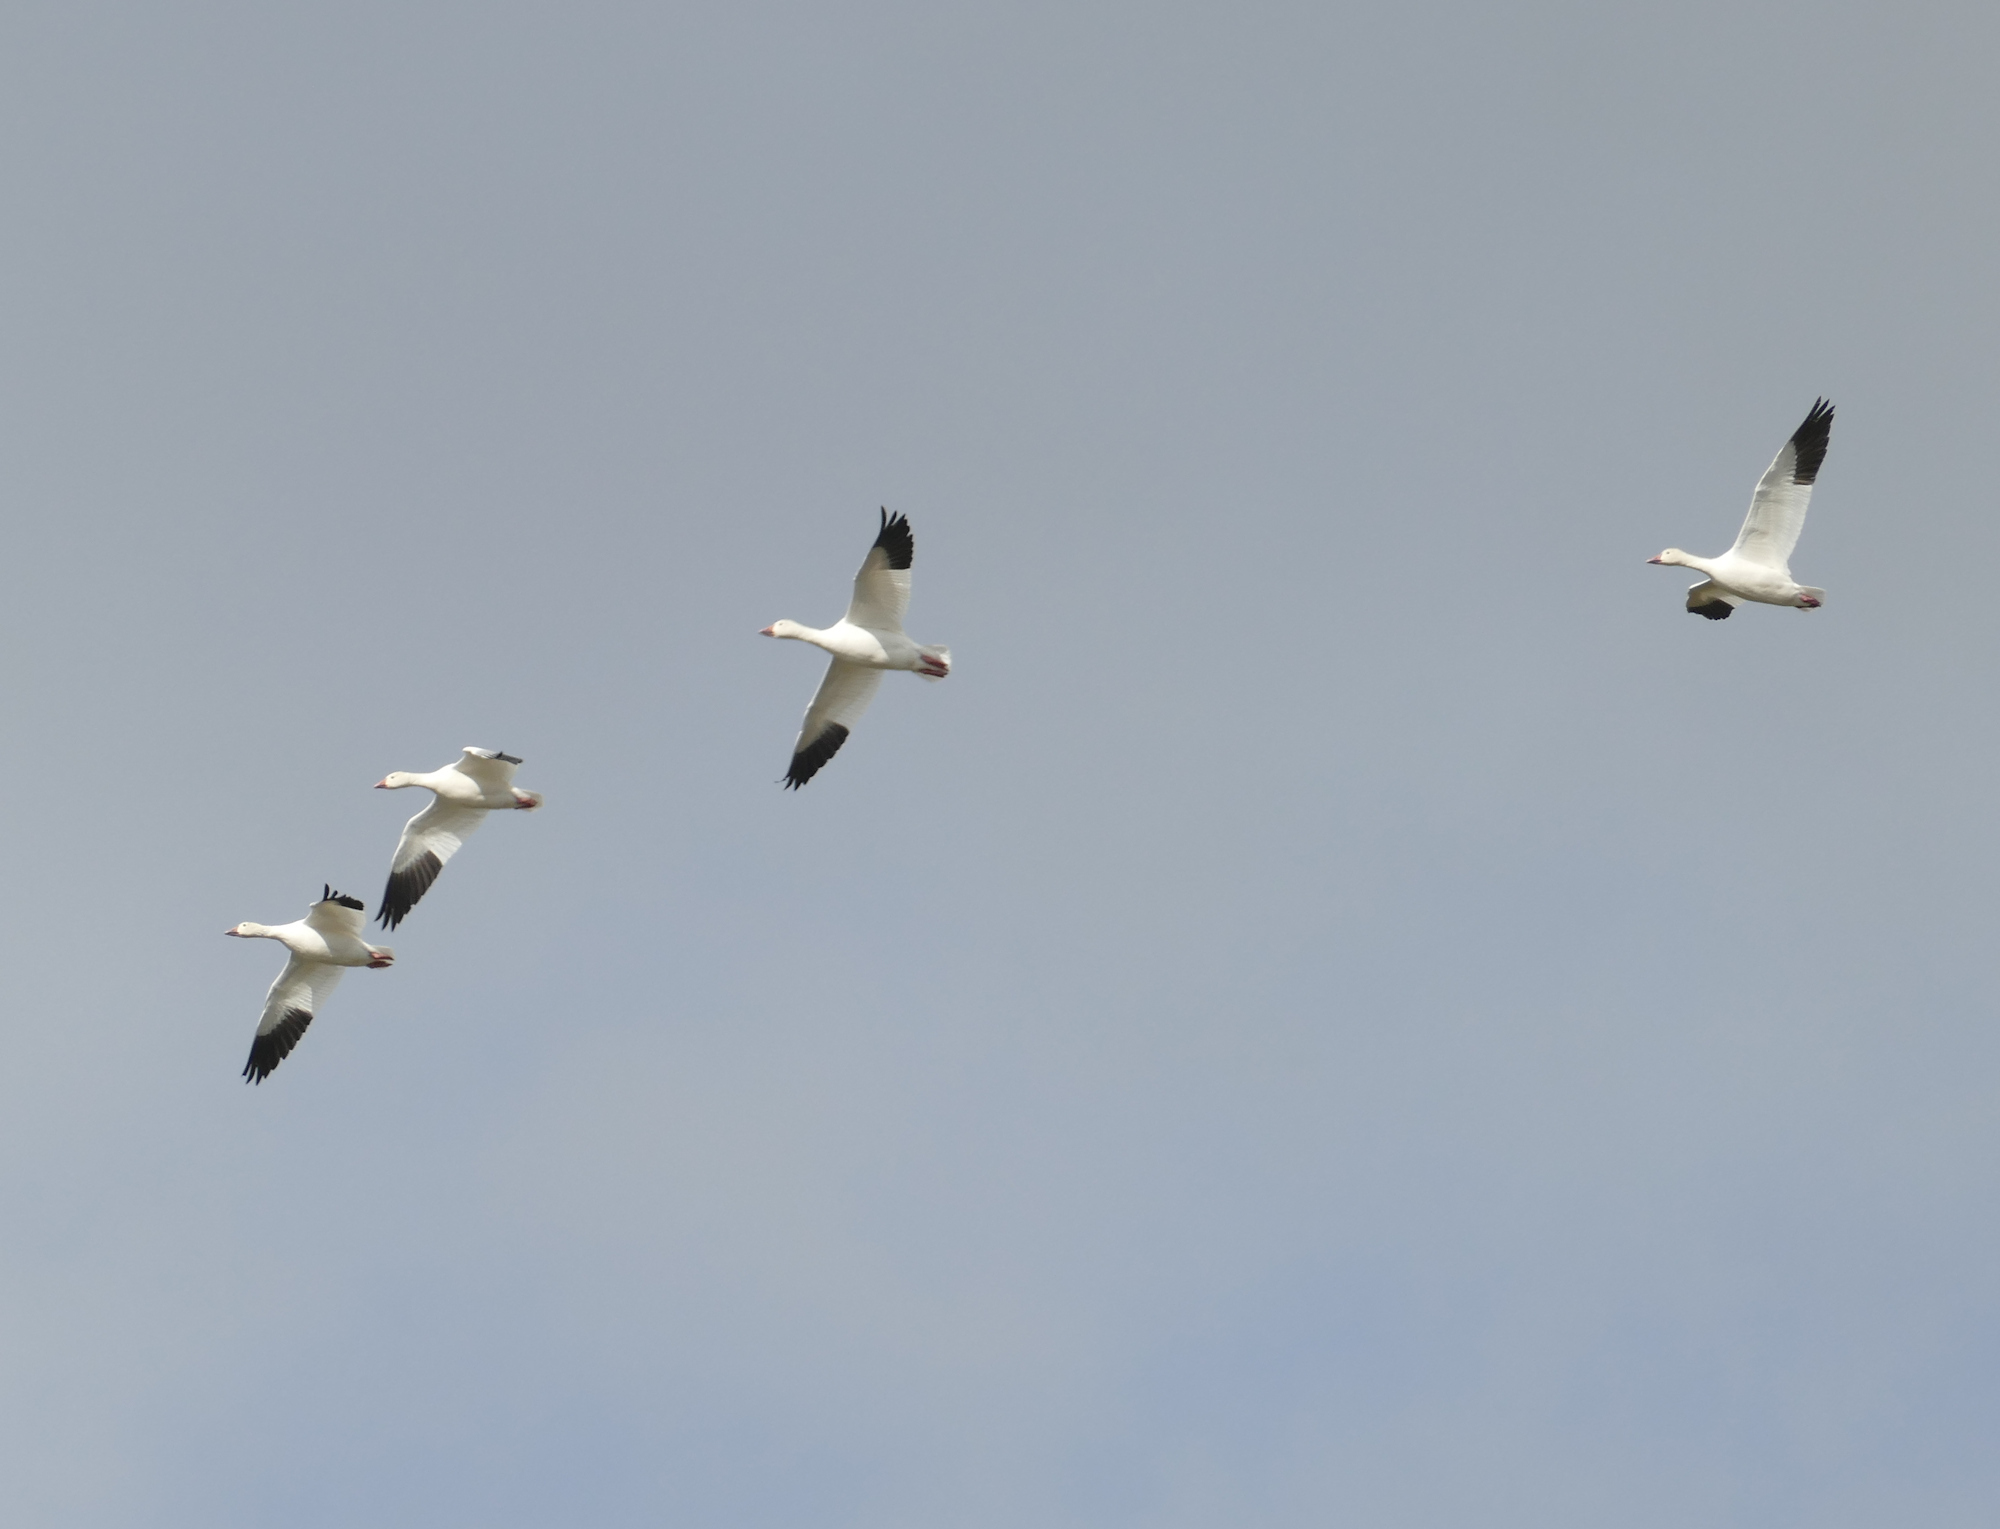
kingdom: Animalia
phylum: Chordata
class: Aves
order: Anseriformes
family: Anatidae
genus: Anser
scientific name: Anser caerulescens
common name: Snow goose
